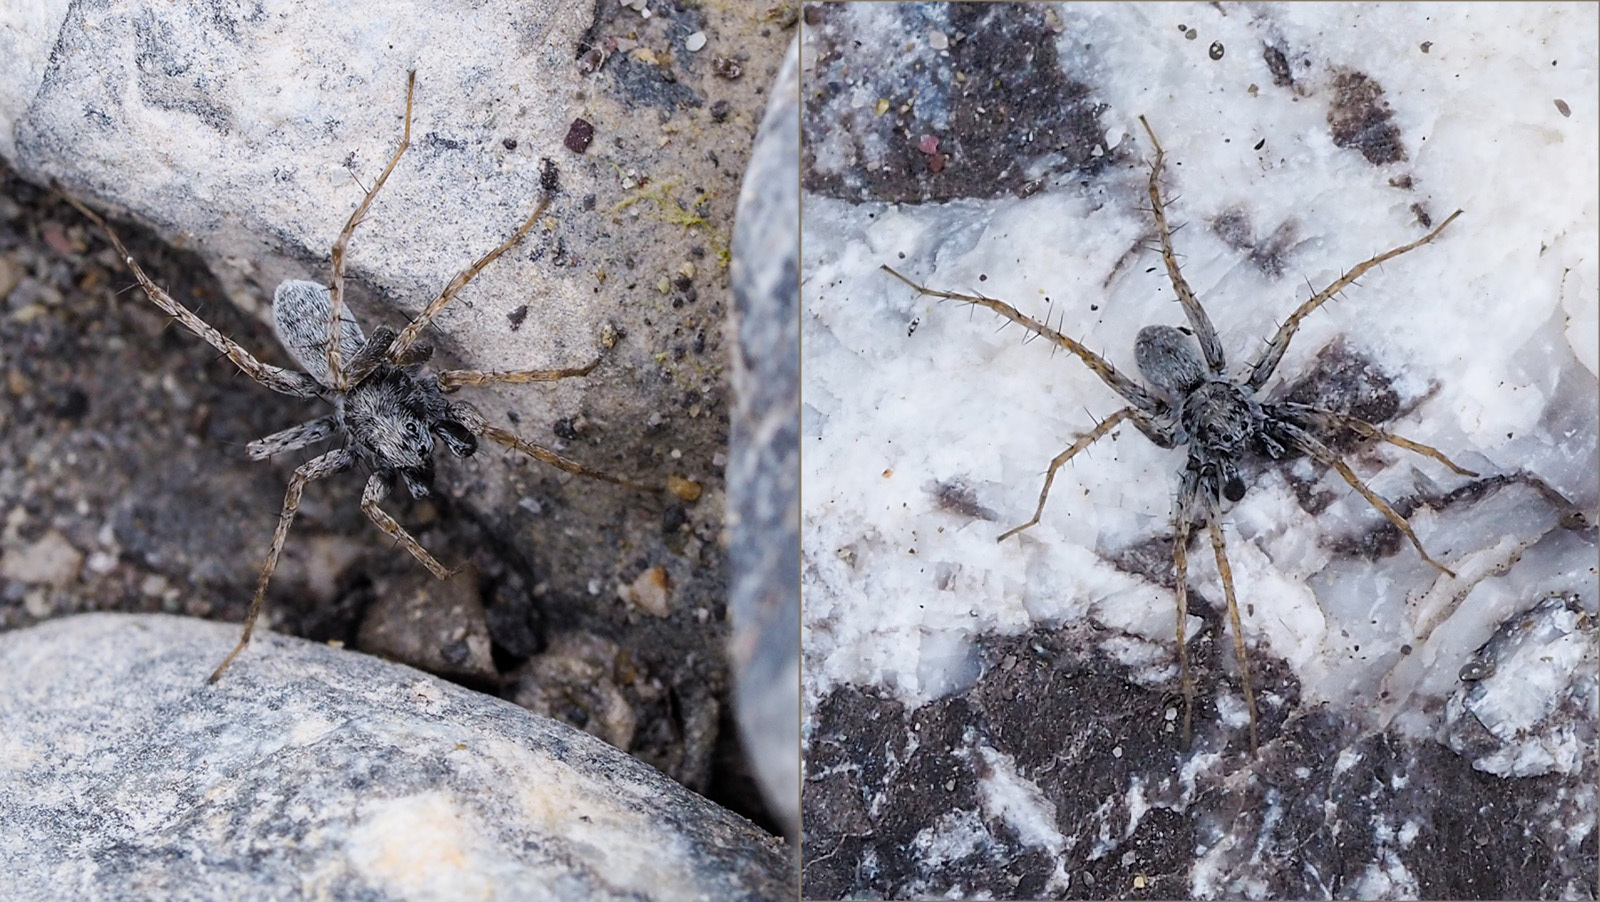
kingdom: Animalia
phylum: Arthropoda
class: Arachnida
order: Araneae
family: Lycosidae
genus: Pardosa
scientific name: Pardosa wagleri
